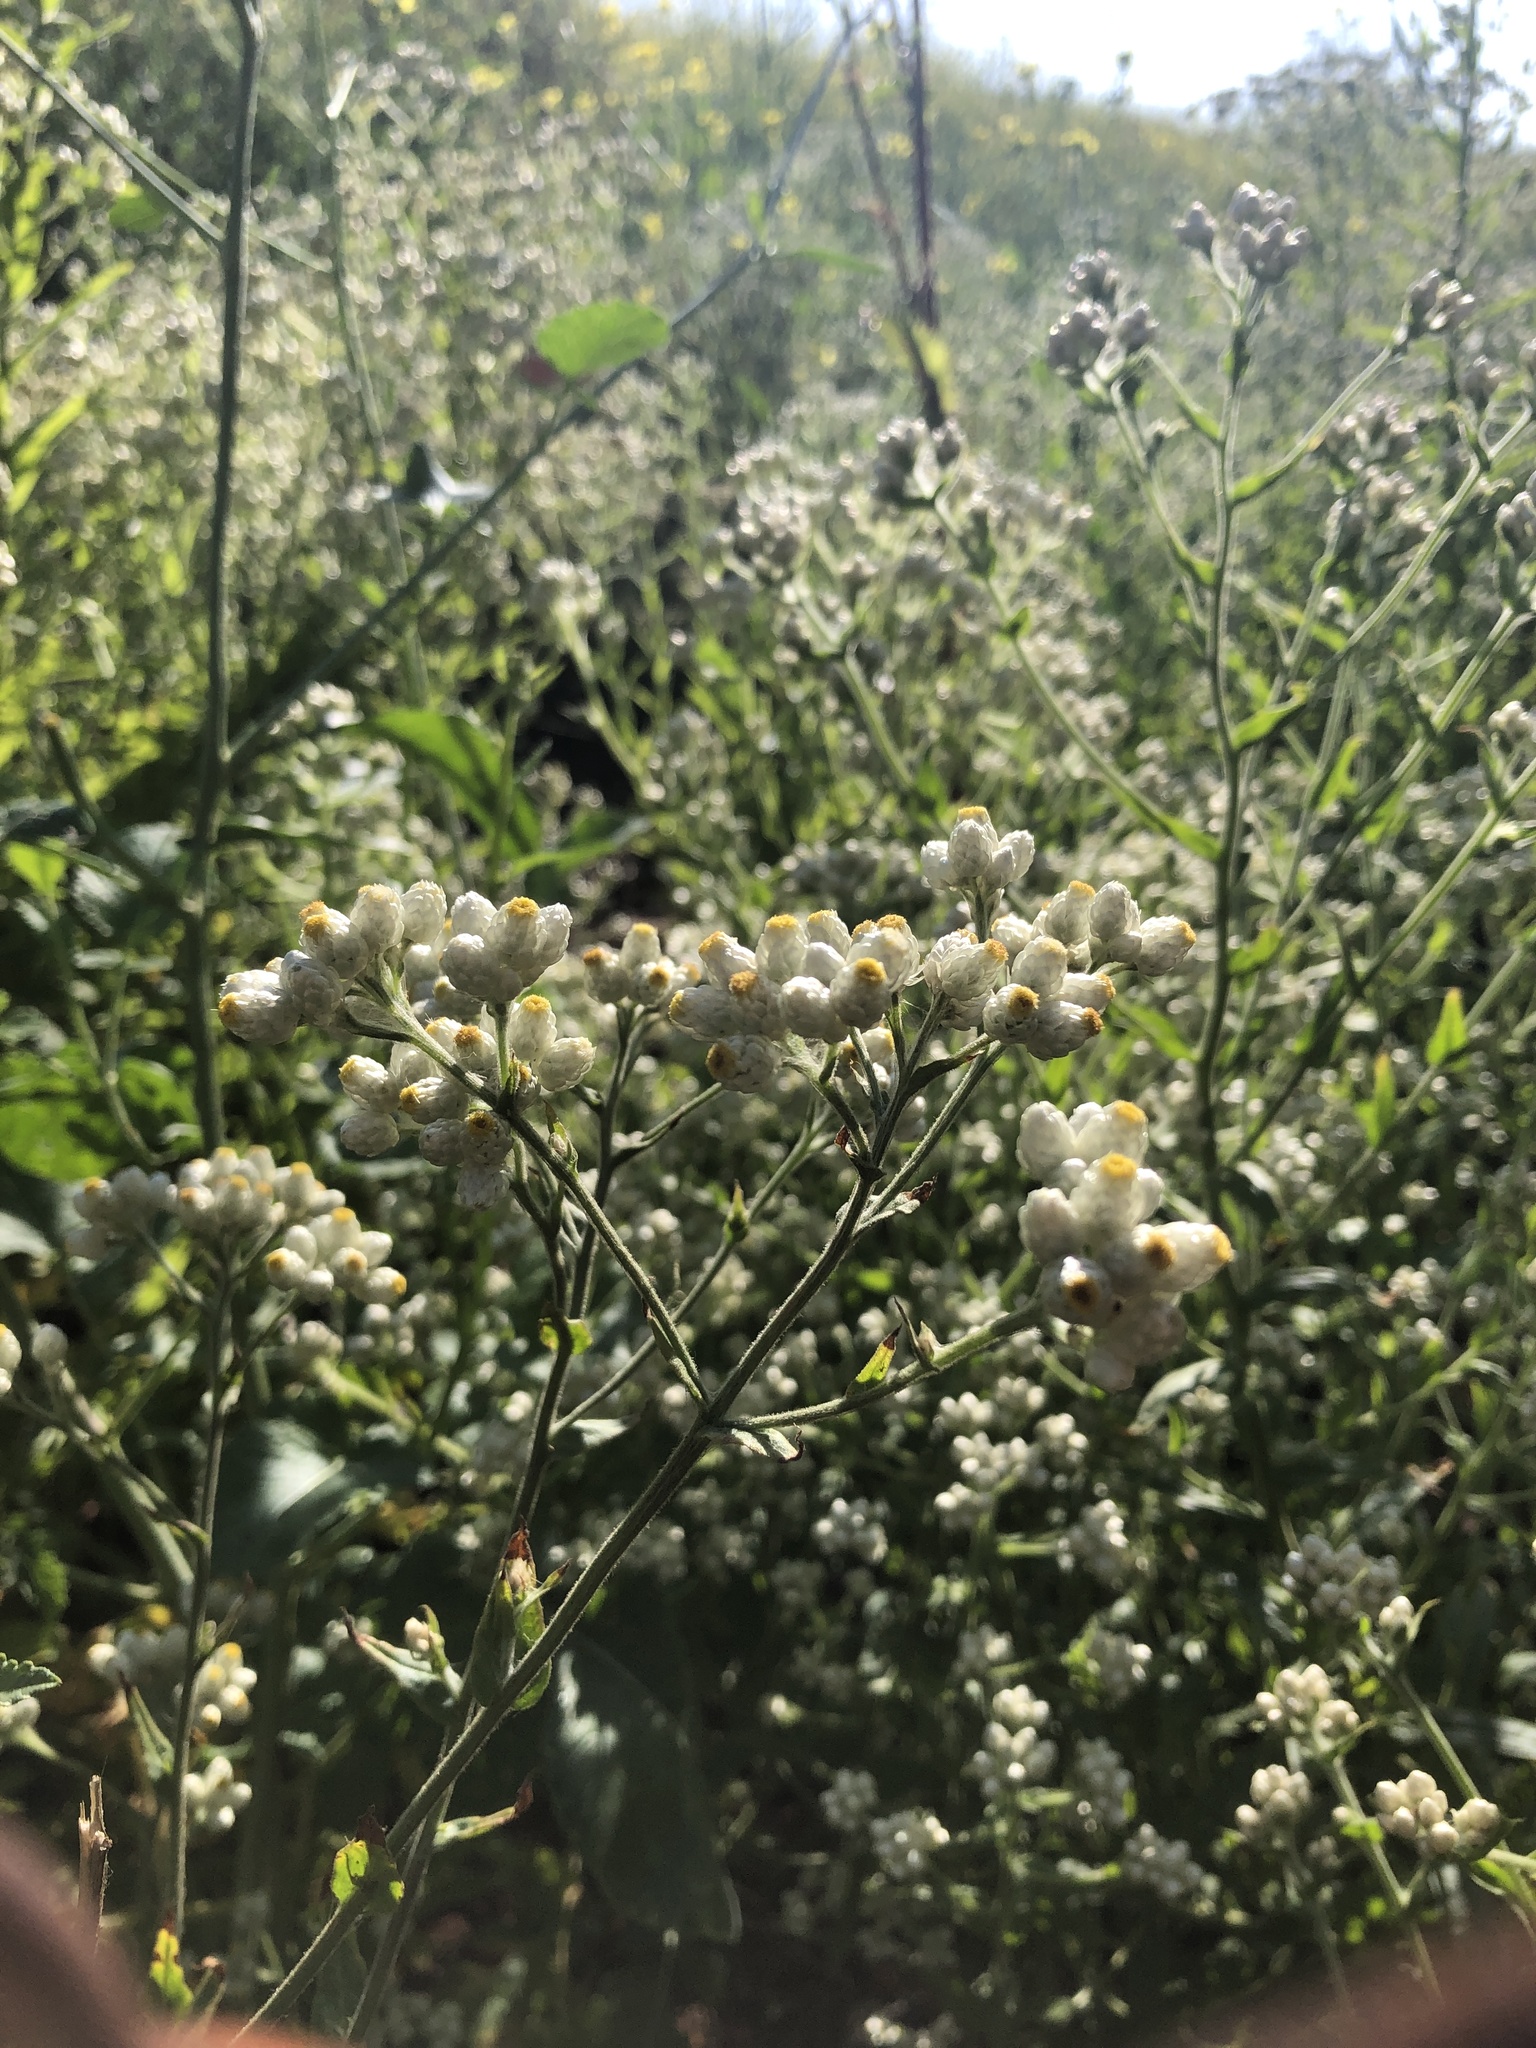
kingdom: Plantae
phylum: Tracheophyta
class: Magnoliopsida
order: Asterales
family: Asteraceae
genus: Pseudognaphalium
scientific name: Pseudognaphalium californicum
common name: California rabbit-tobacco
